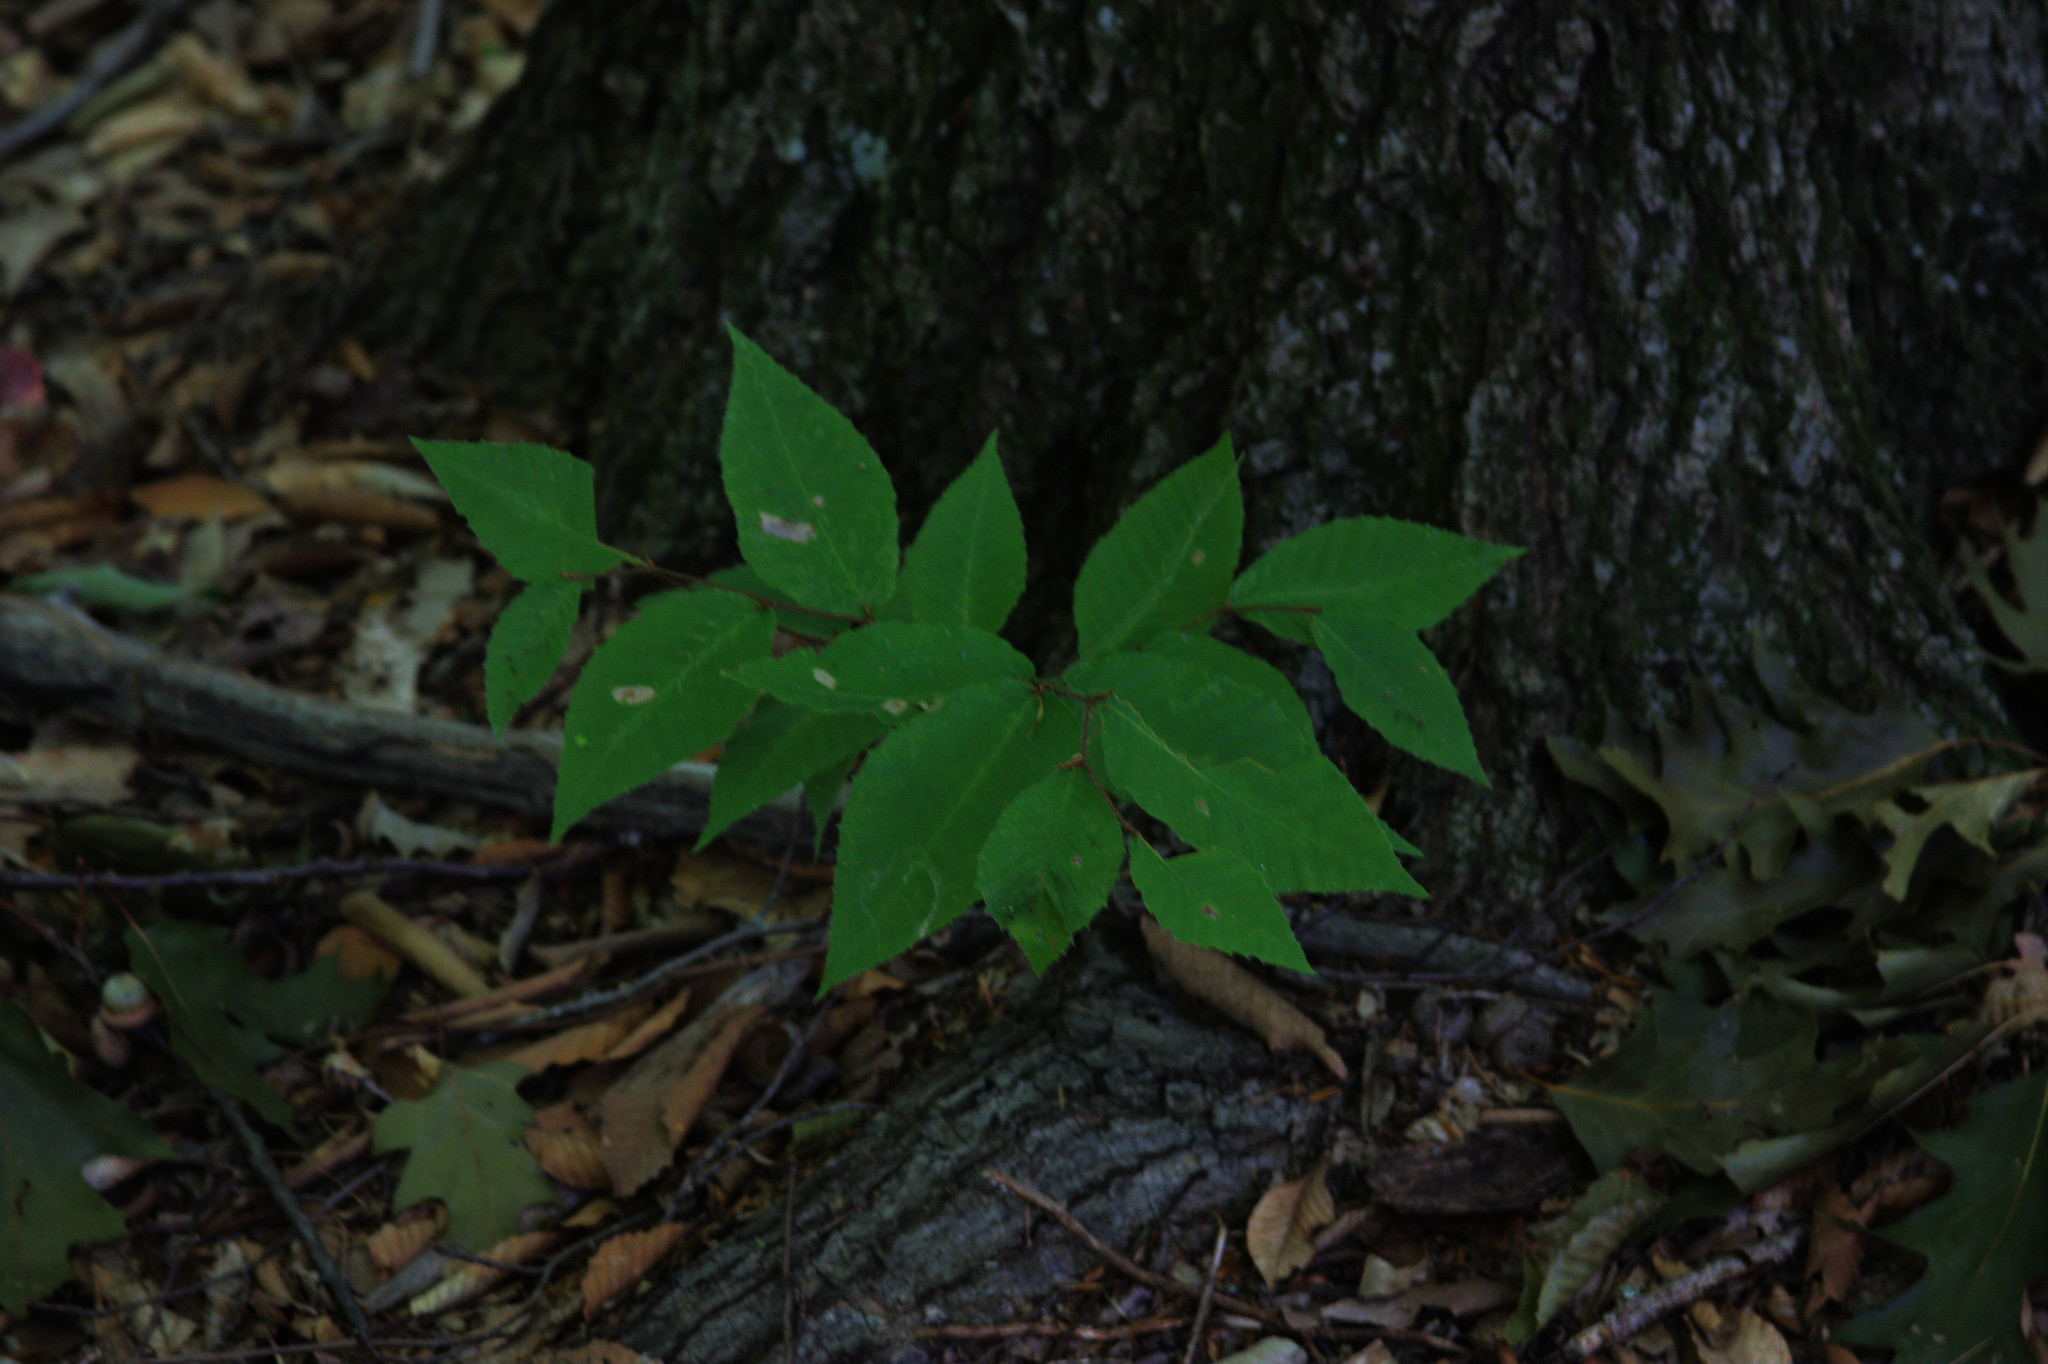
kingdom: Plantae
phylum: Tracheophyta
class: Magnoliopsida
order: Fagales
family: Fagaceae
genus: Fagus
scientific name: Fagus grandifolia
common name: American beech
